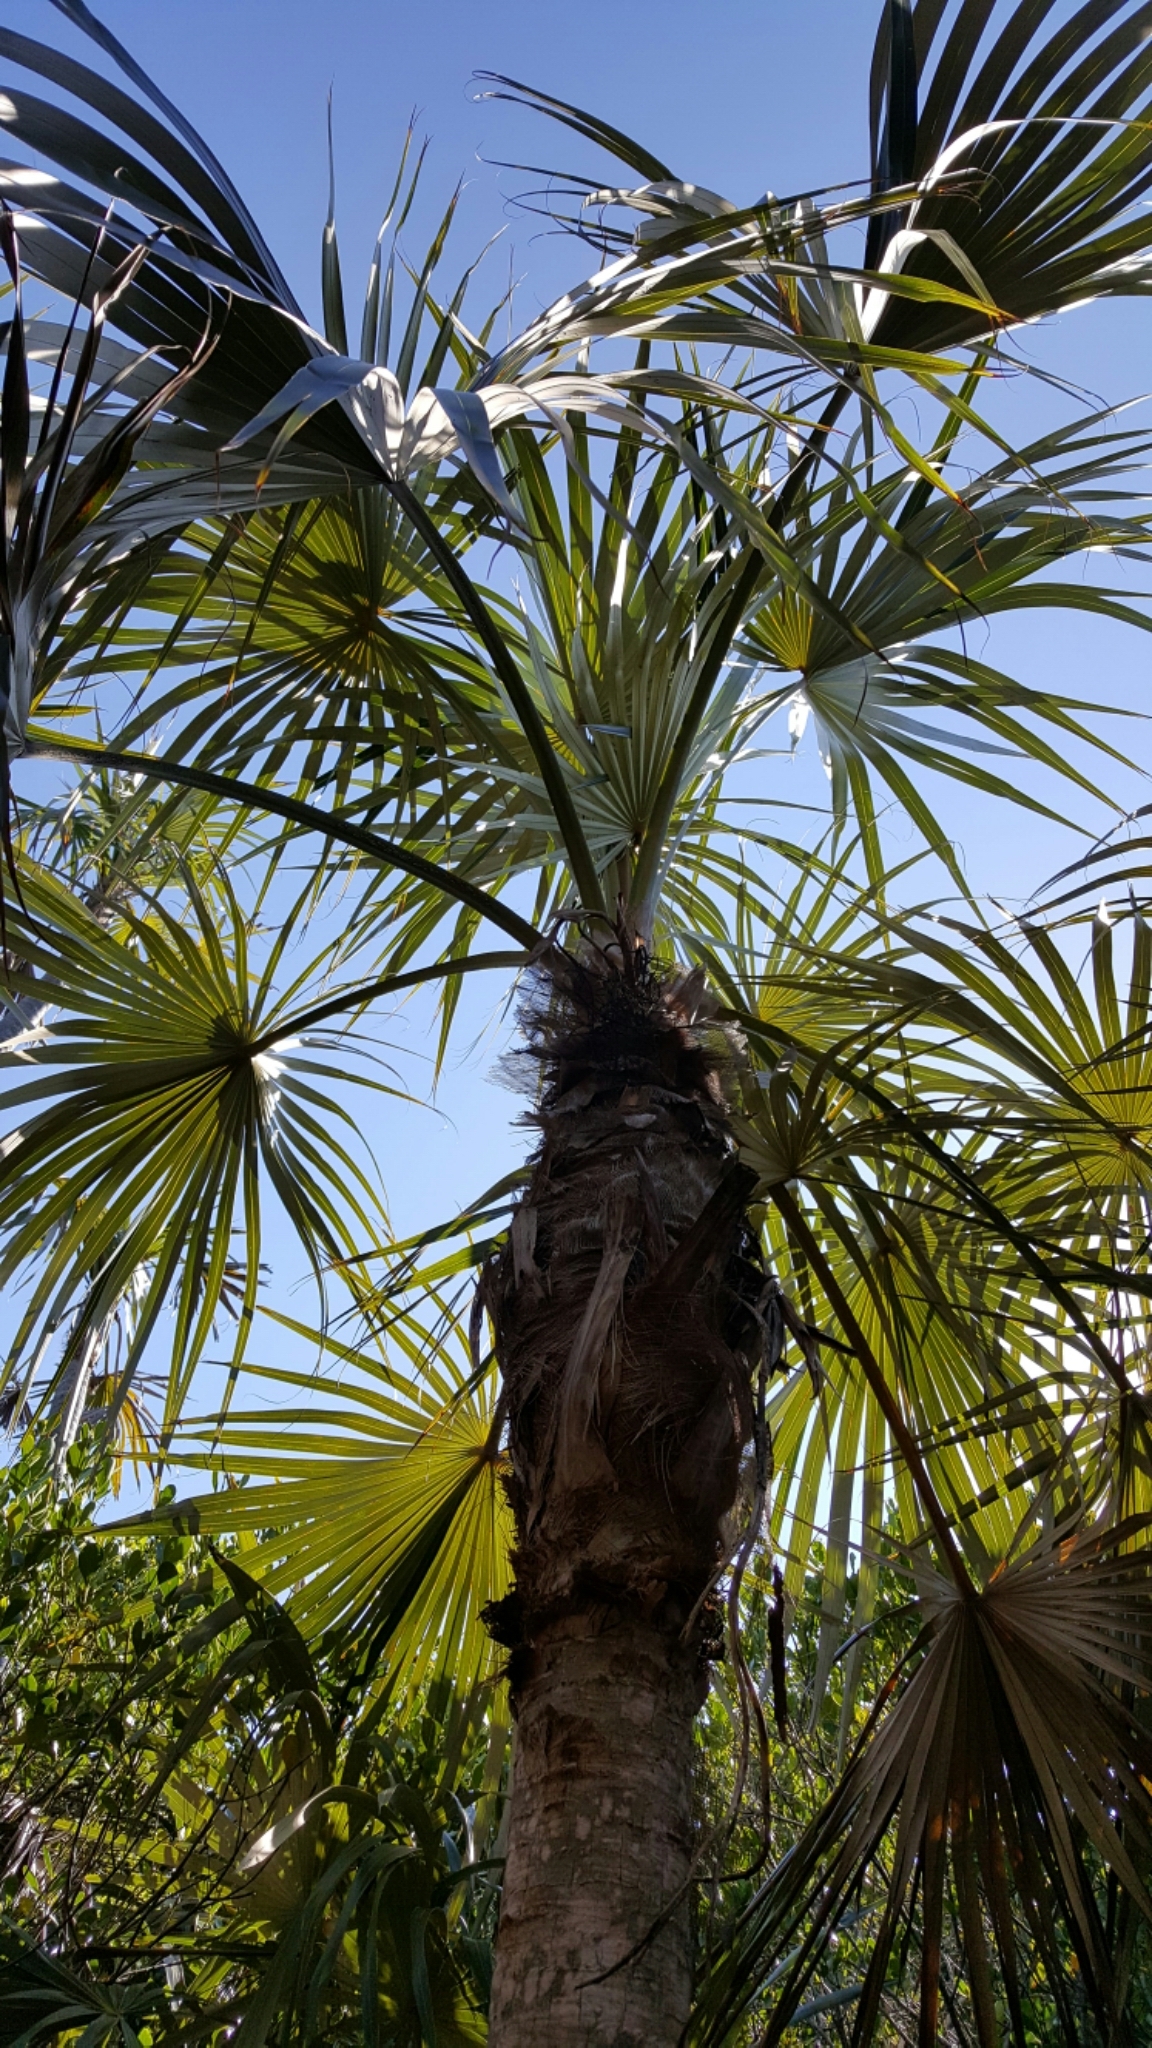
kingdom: Plantae
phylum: Tracheophyta
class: Liliopsida
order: Arecales
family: Arecaceae
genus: Coccothrinax
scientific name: Coccothrinax argentata
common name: Florida silver palm
